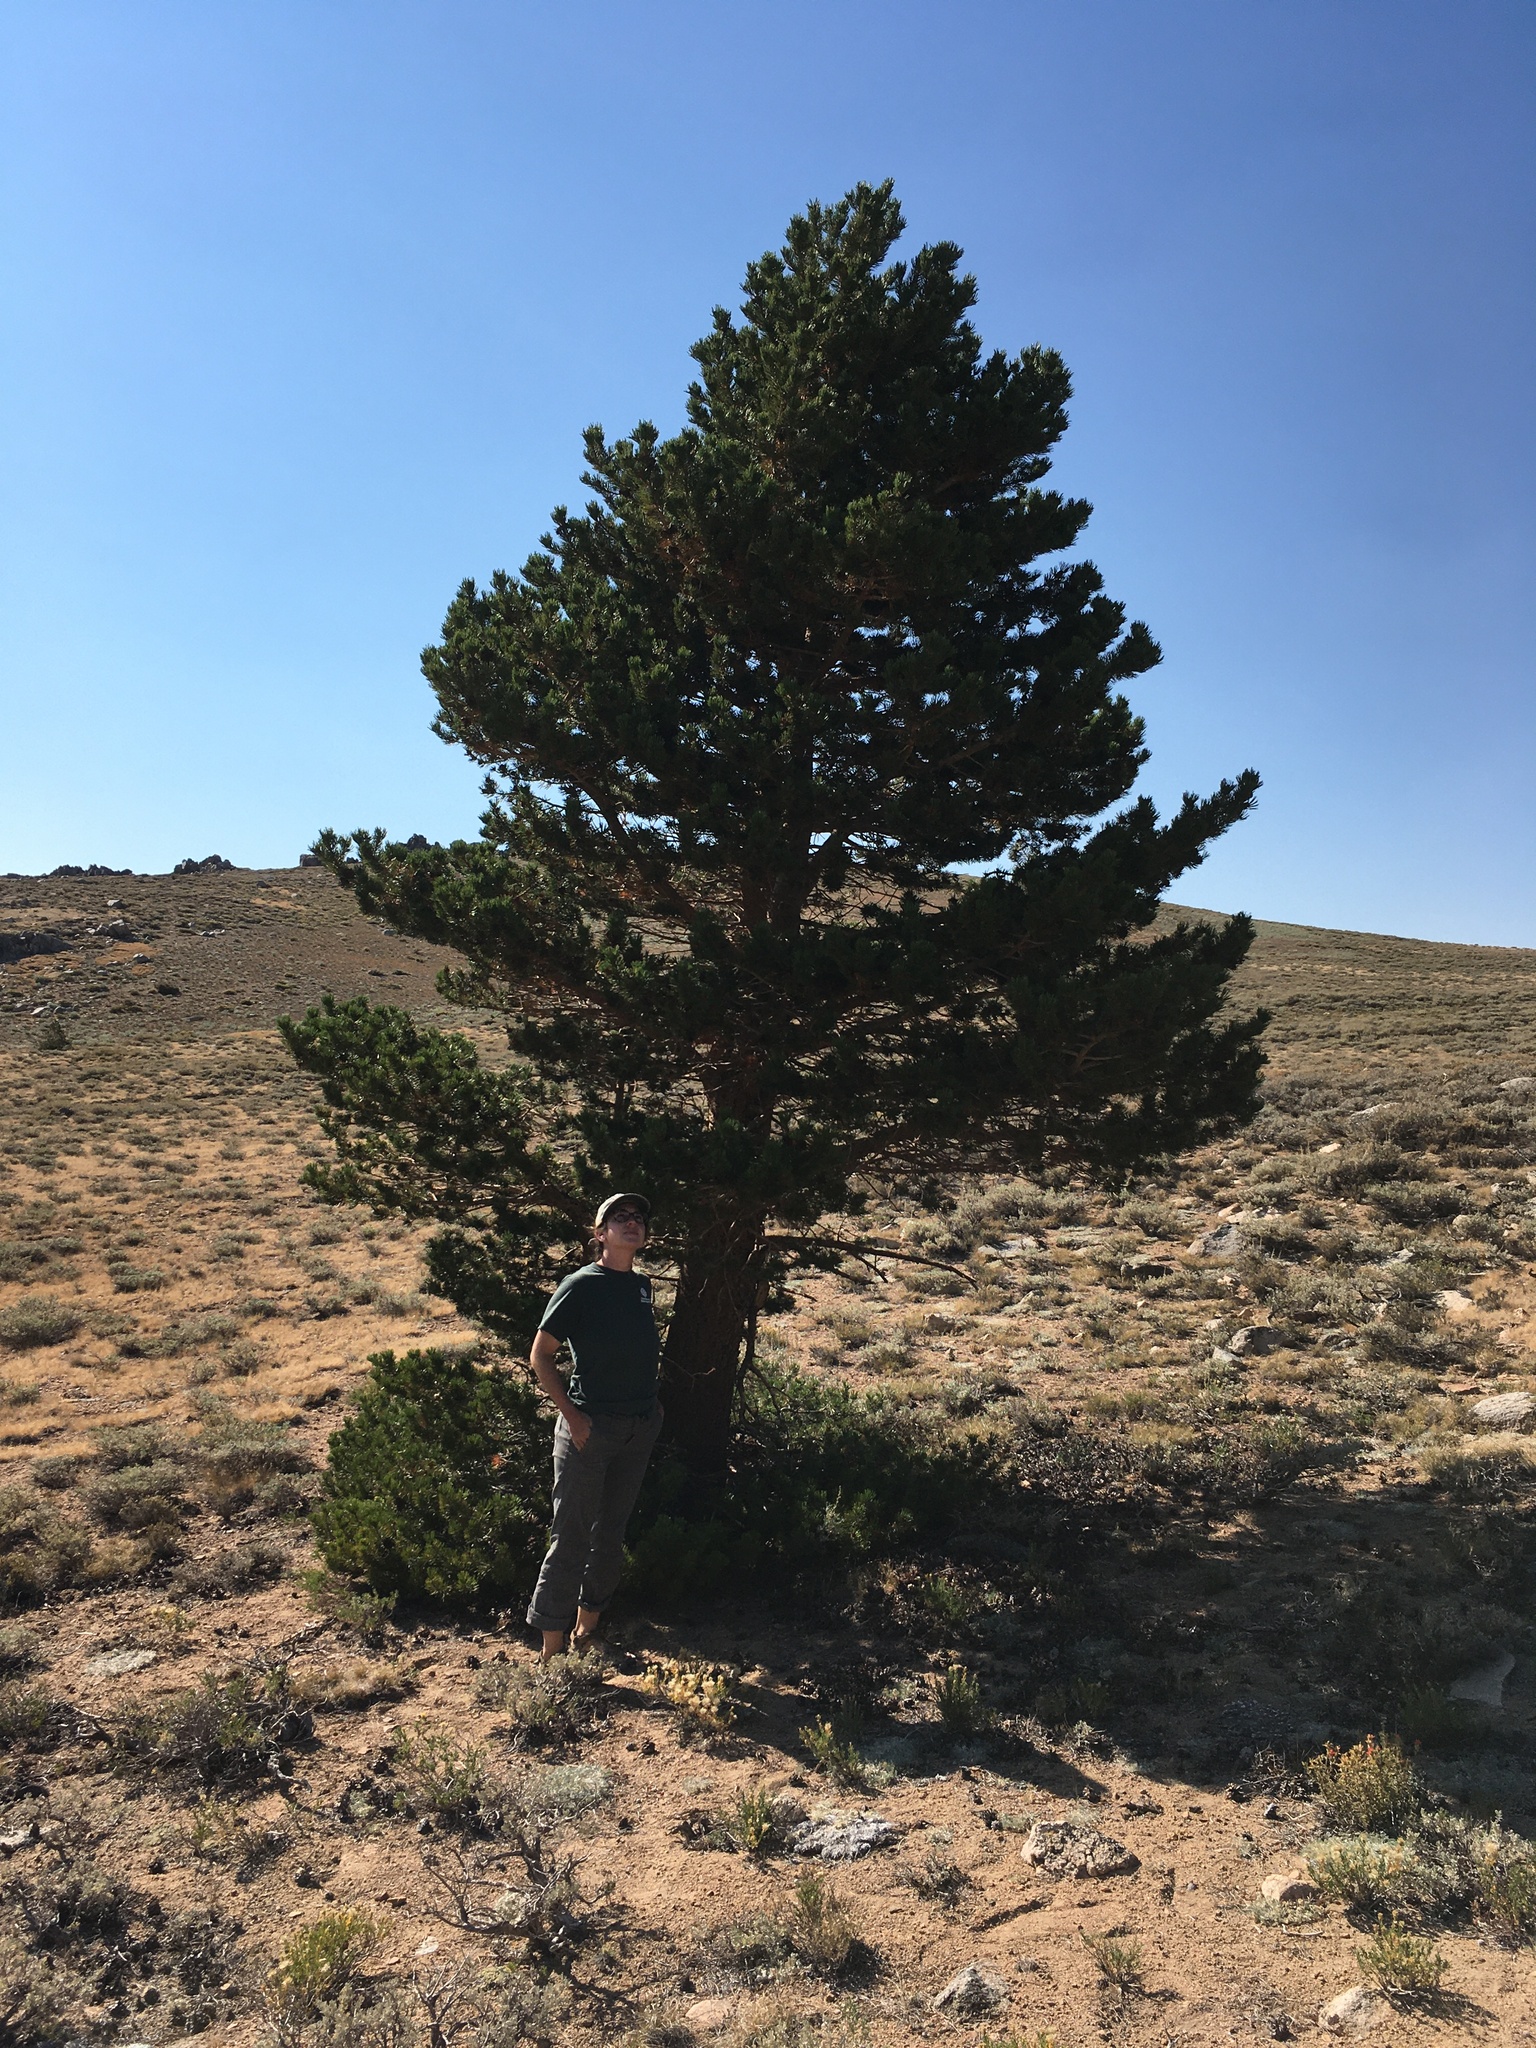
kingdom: Plantae
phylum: Tracheophyta
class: Pinopsida
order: Pinales
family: Pinaceae
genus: Pinus
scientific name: Pinus contorta
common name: Lodgepole pine
